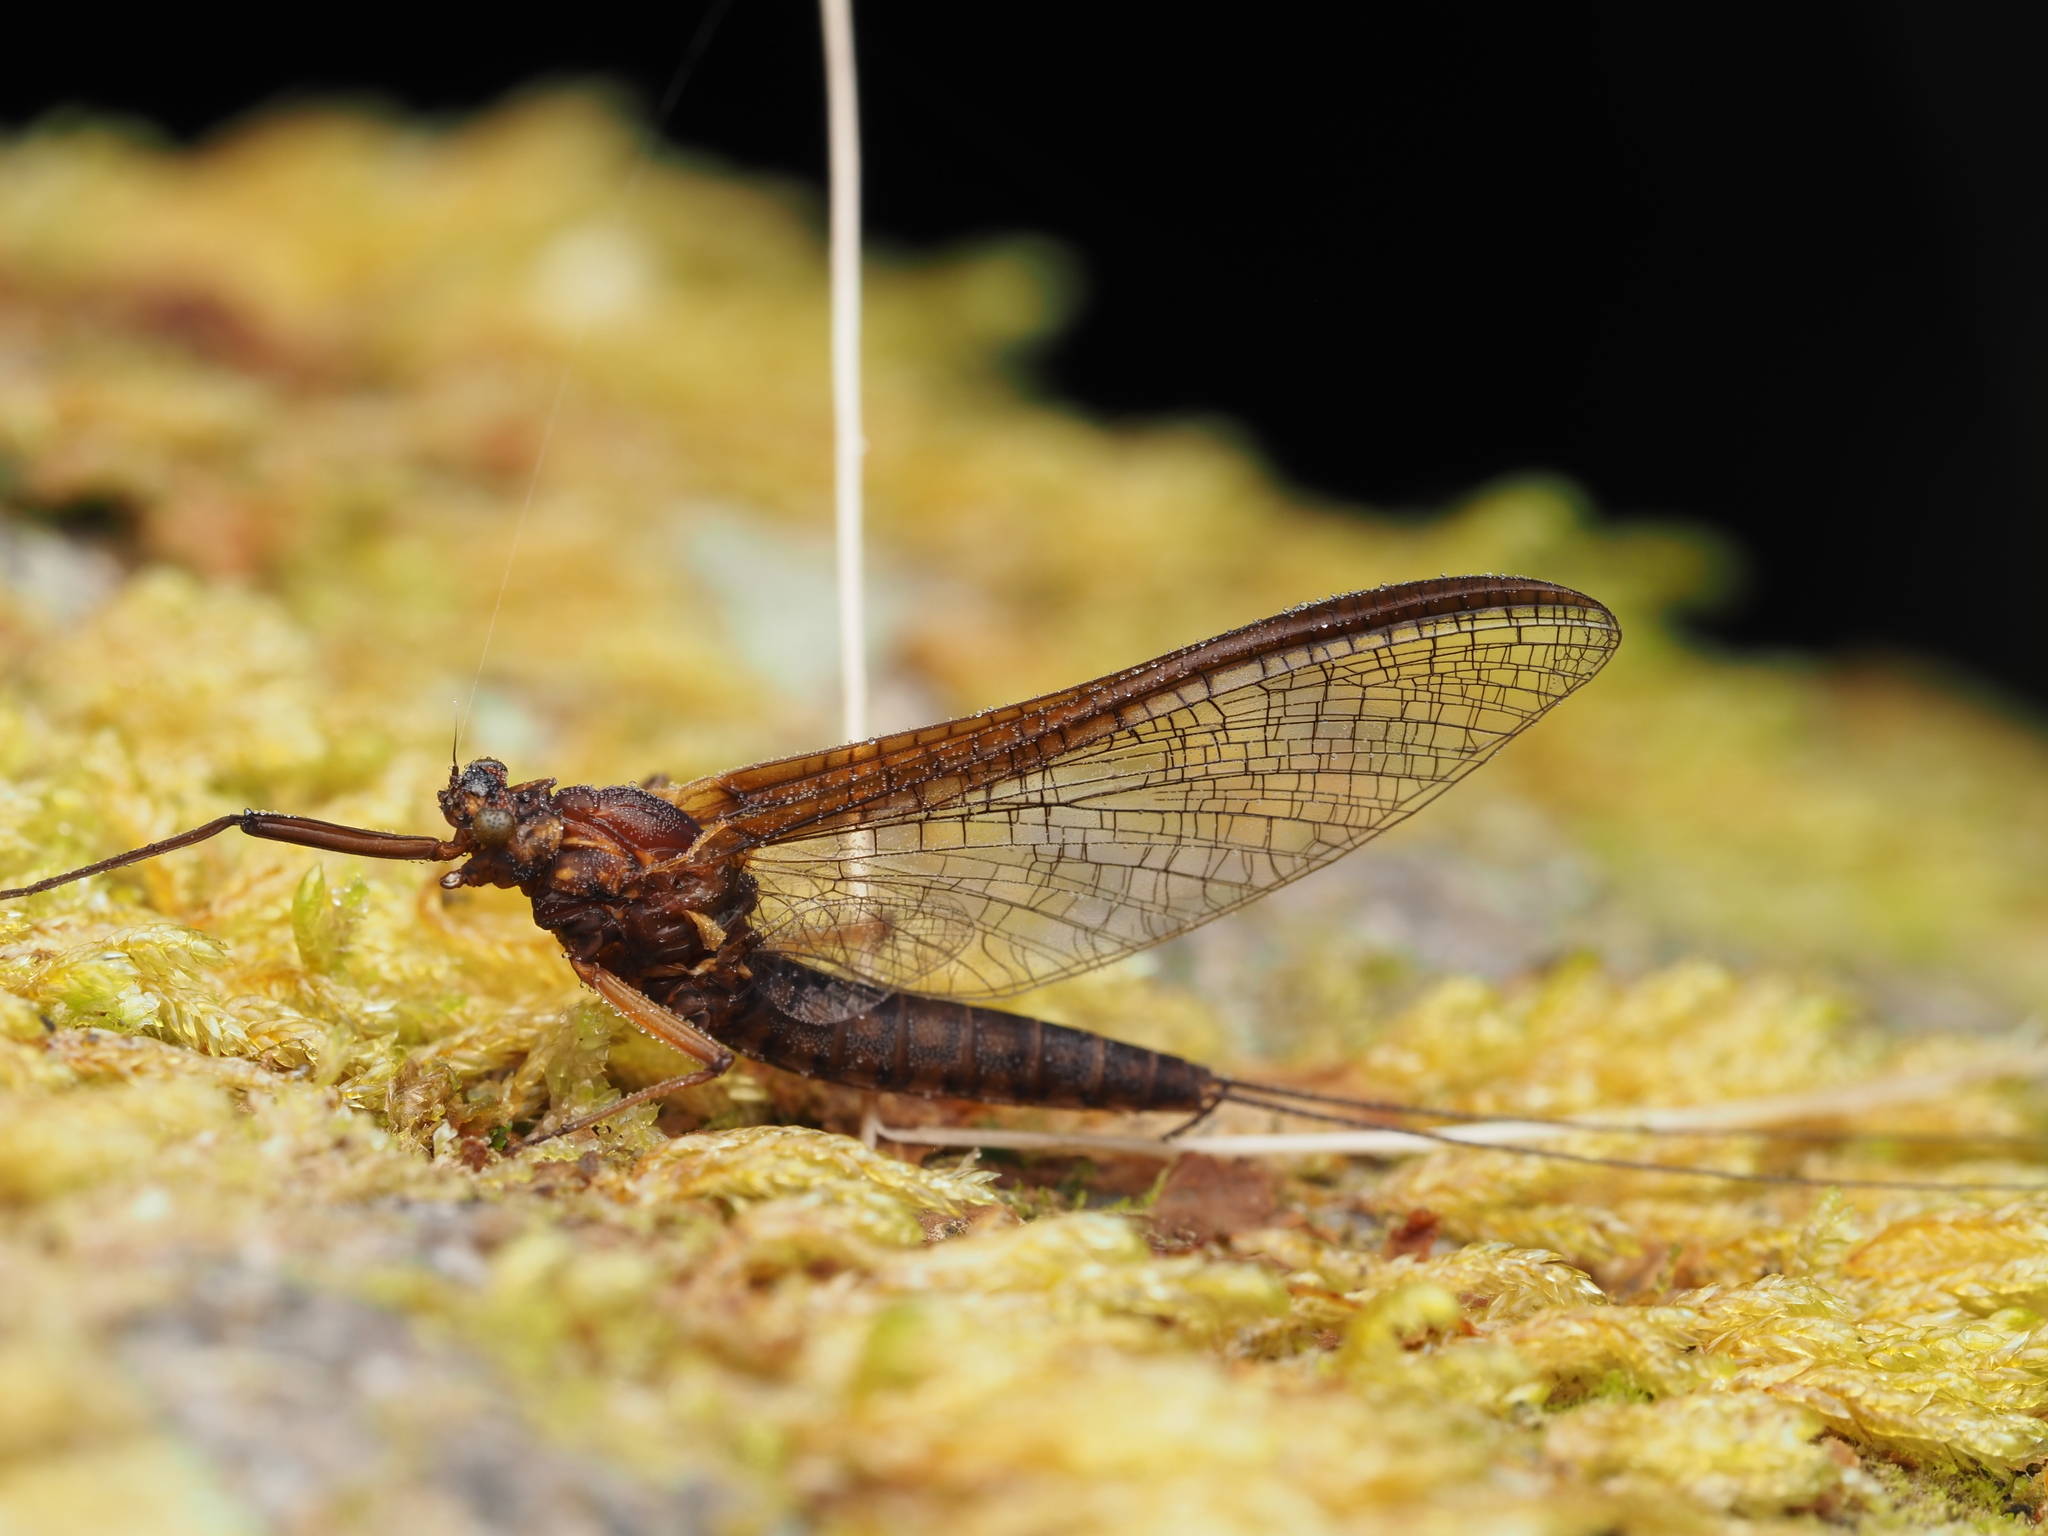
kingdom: Animalia
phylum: Arthropoda
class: Insecta
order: Ephemeroptera
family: Leptophlebiidae
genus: Deleatidium
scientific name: Deleatidium magnum
